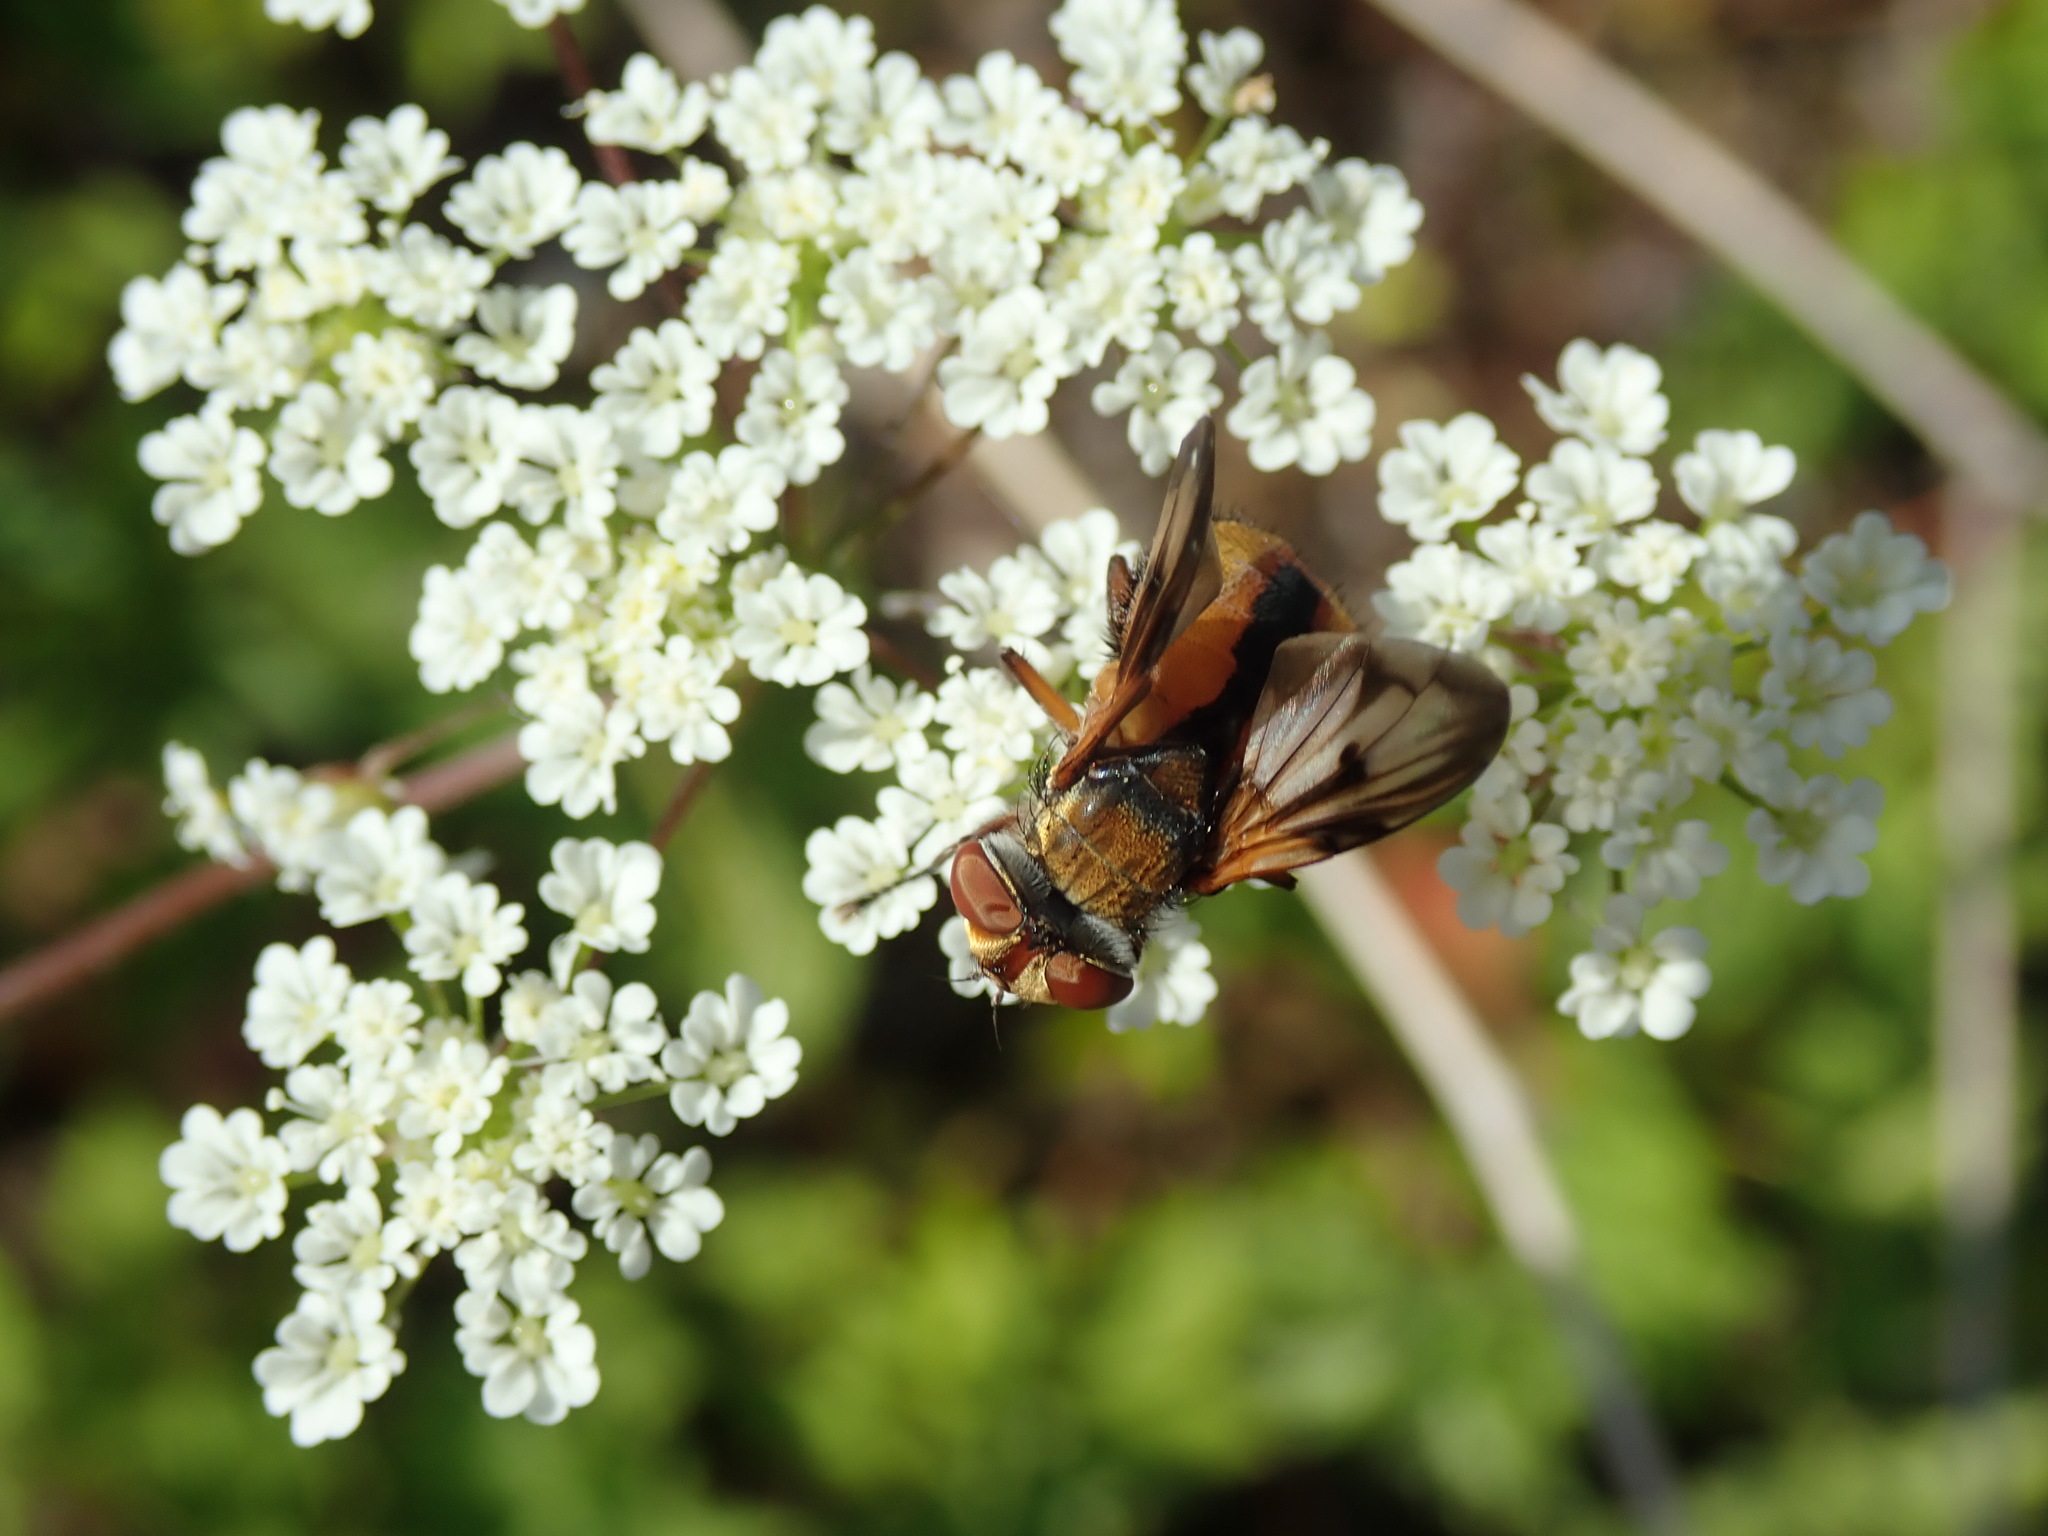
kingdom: Animalia
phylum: Arthropoda
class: Insecta
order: Diptera
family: Tachinidae
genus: Ectophasia
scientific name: Ectophasia crassipennis
